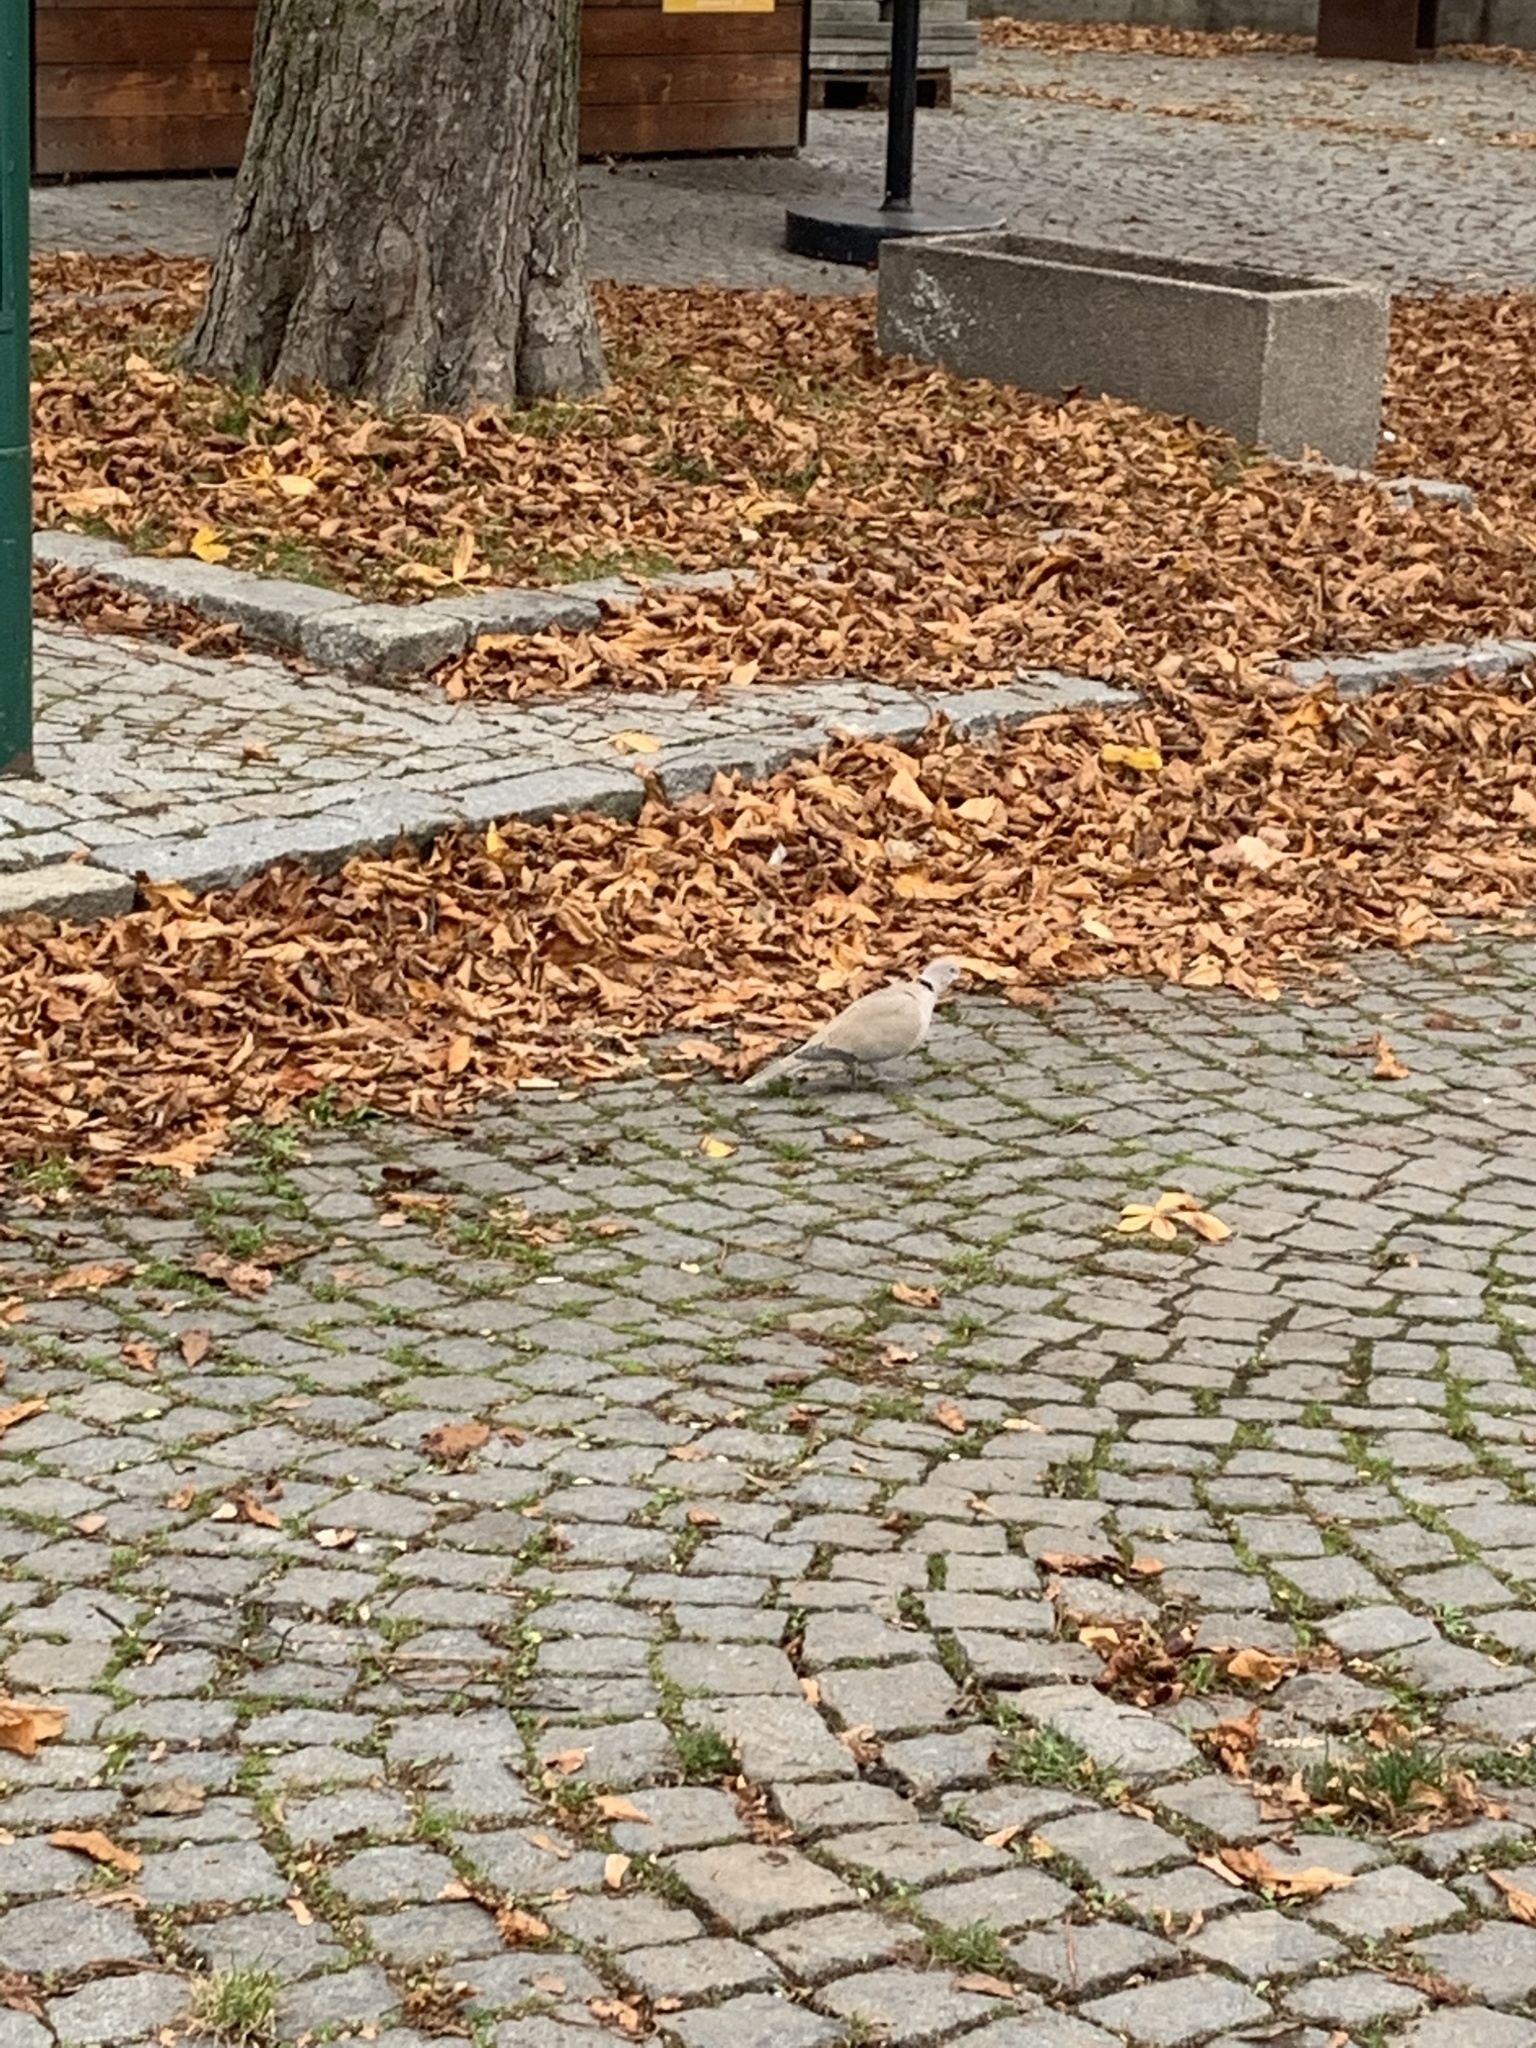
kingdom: Animalia
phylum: Chordata
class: Aves
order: Columbiformes
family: Columbidae
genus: Streptopelia
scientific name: Streptopelia decaocto
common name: Eurasian collared dove
